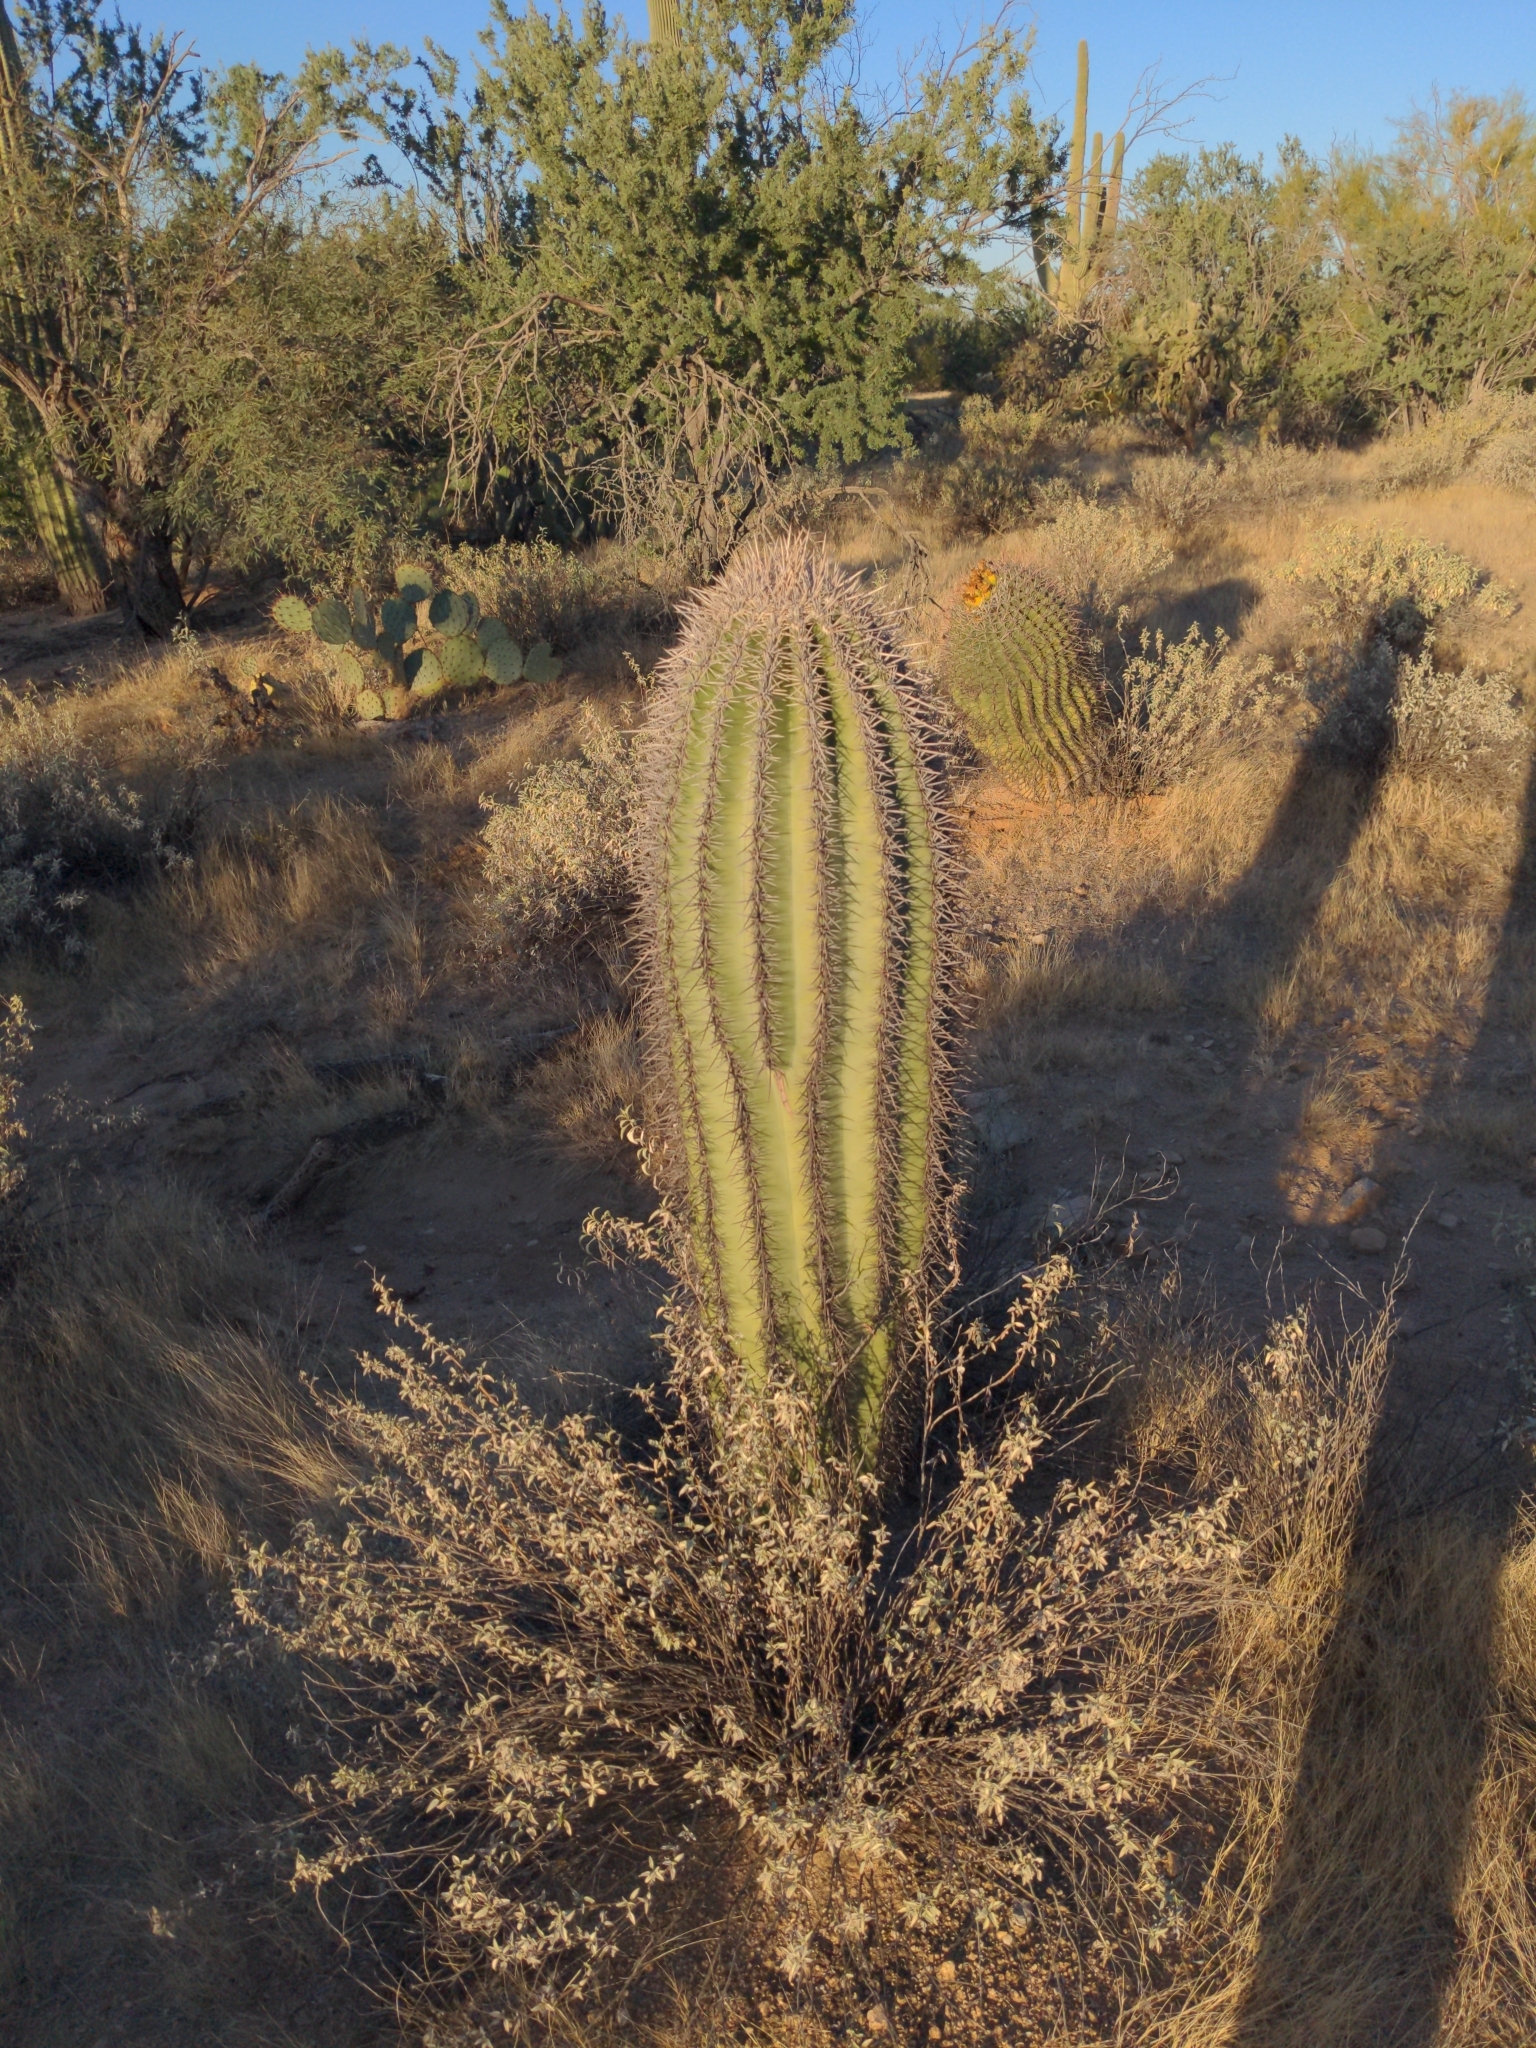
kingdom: Plantae
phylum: Tracheophyta
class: Magnoliopsida
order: Caryophyllales
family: Cactaceae
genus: Carnegiea
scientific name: Carnegiea gigantea
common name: Saguaro
